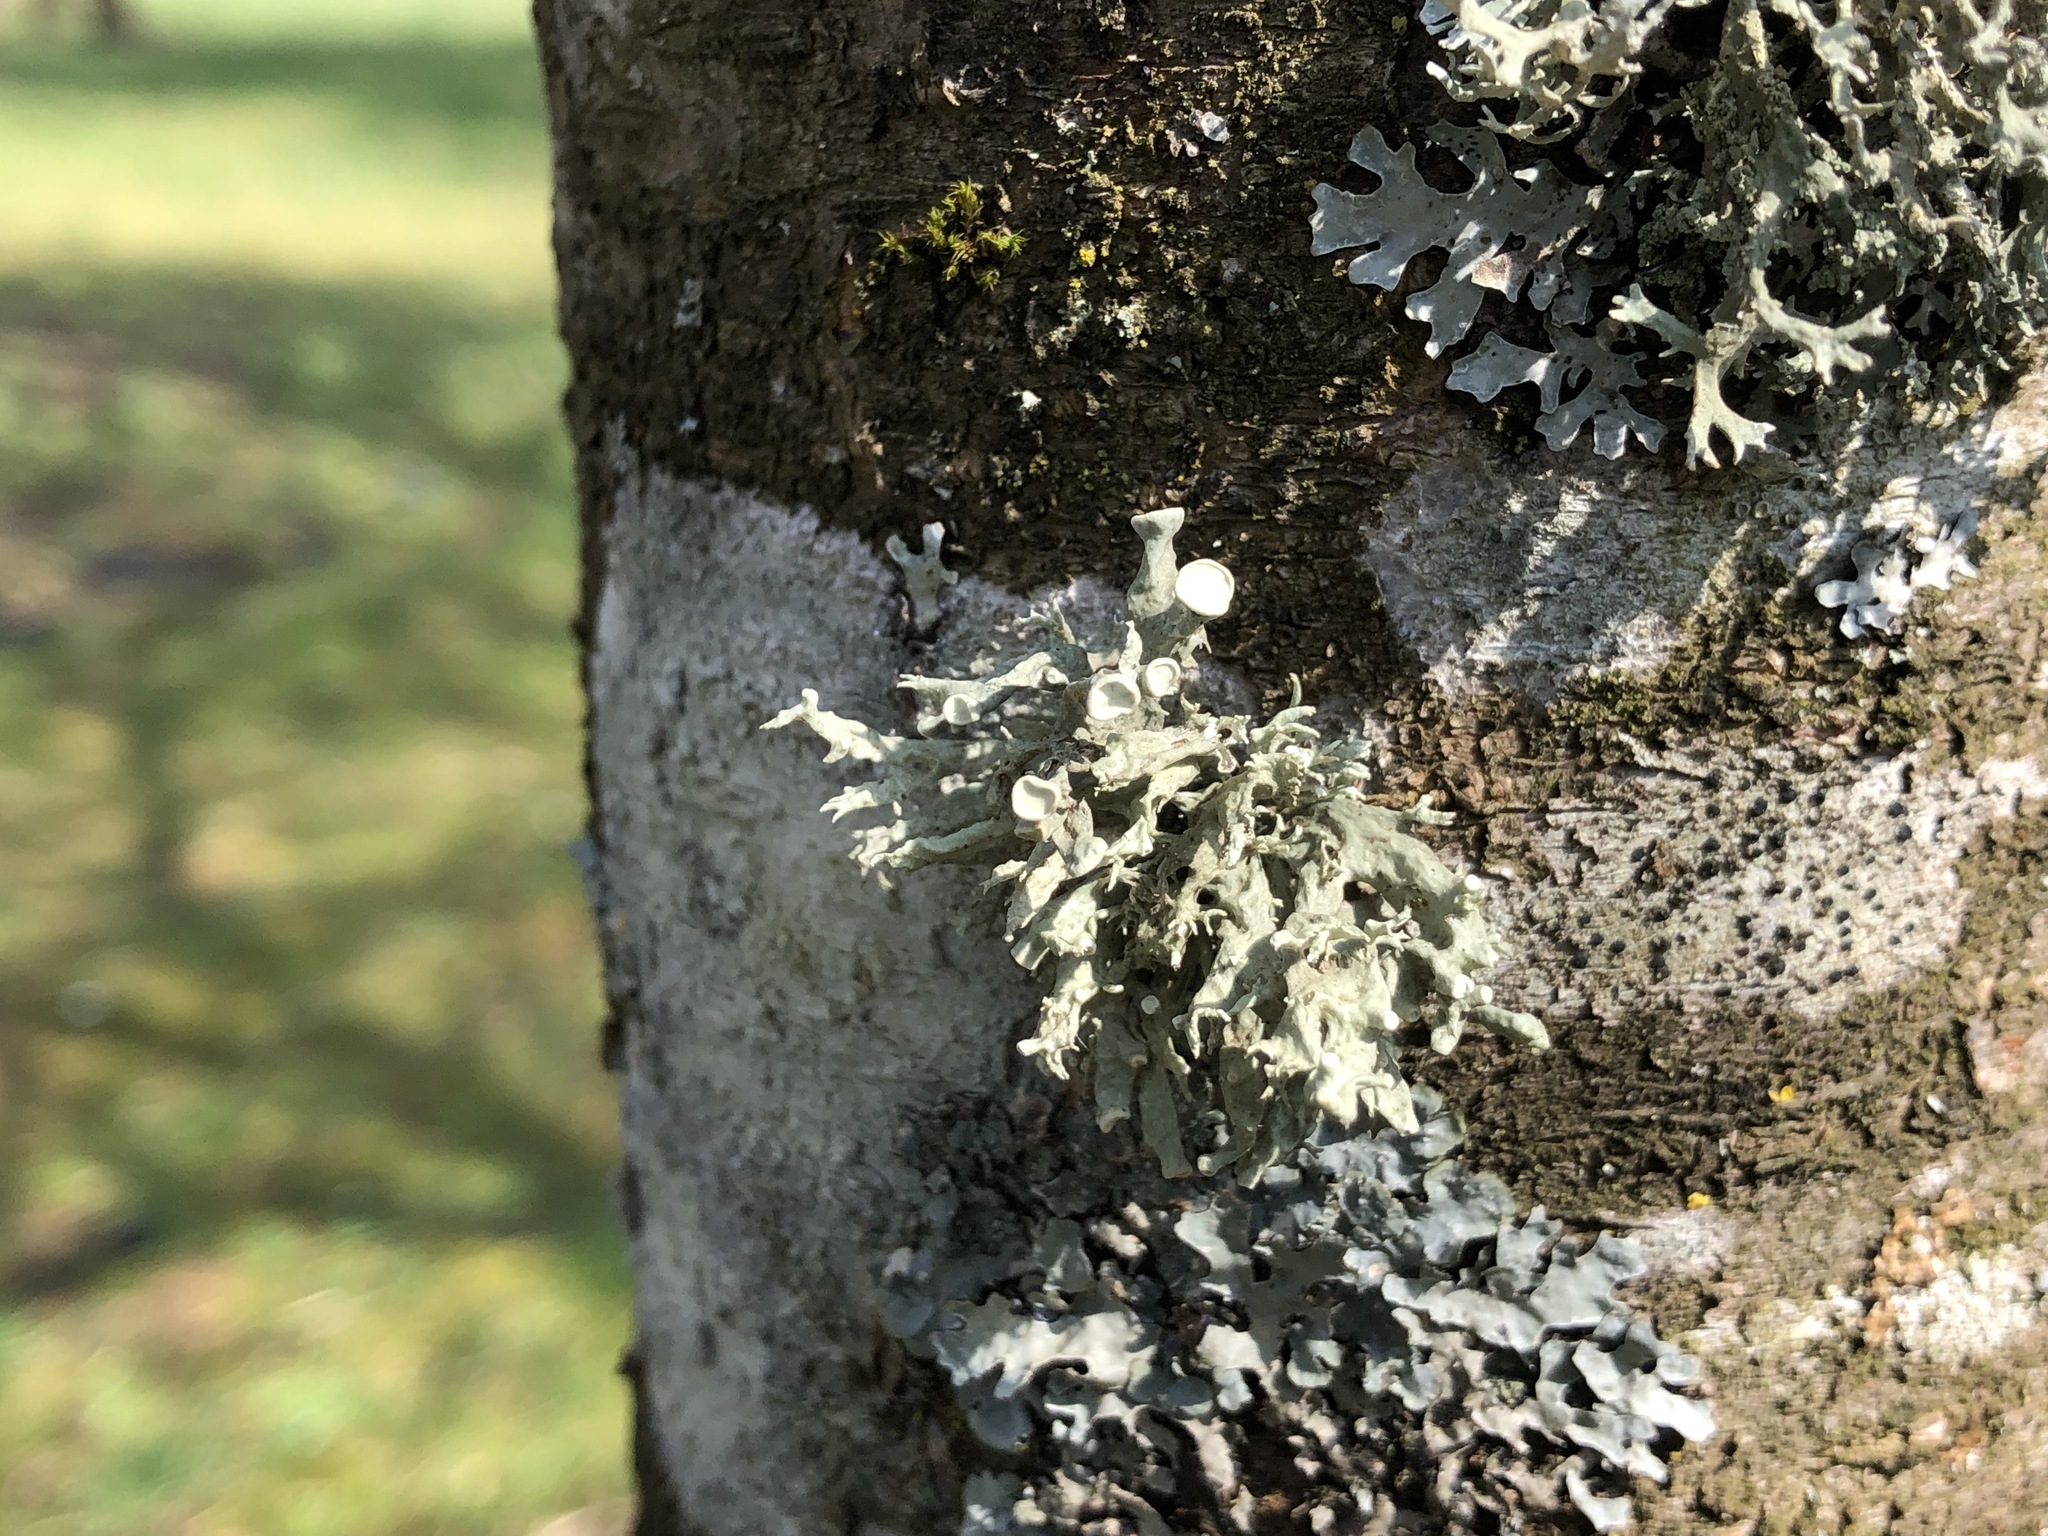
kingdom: Fungi
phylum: Ascomycota
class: Lecanoromycetes
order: Lecanorales
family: Ramalinaceae
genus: Ramalina
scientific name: Ramalina fastigiata
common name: Dotted ribbon lichen
